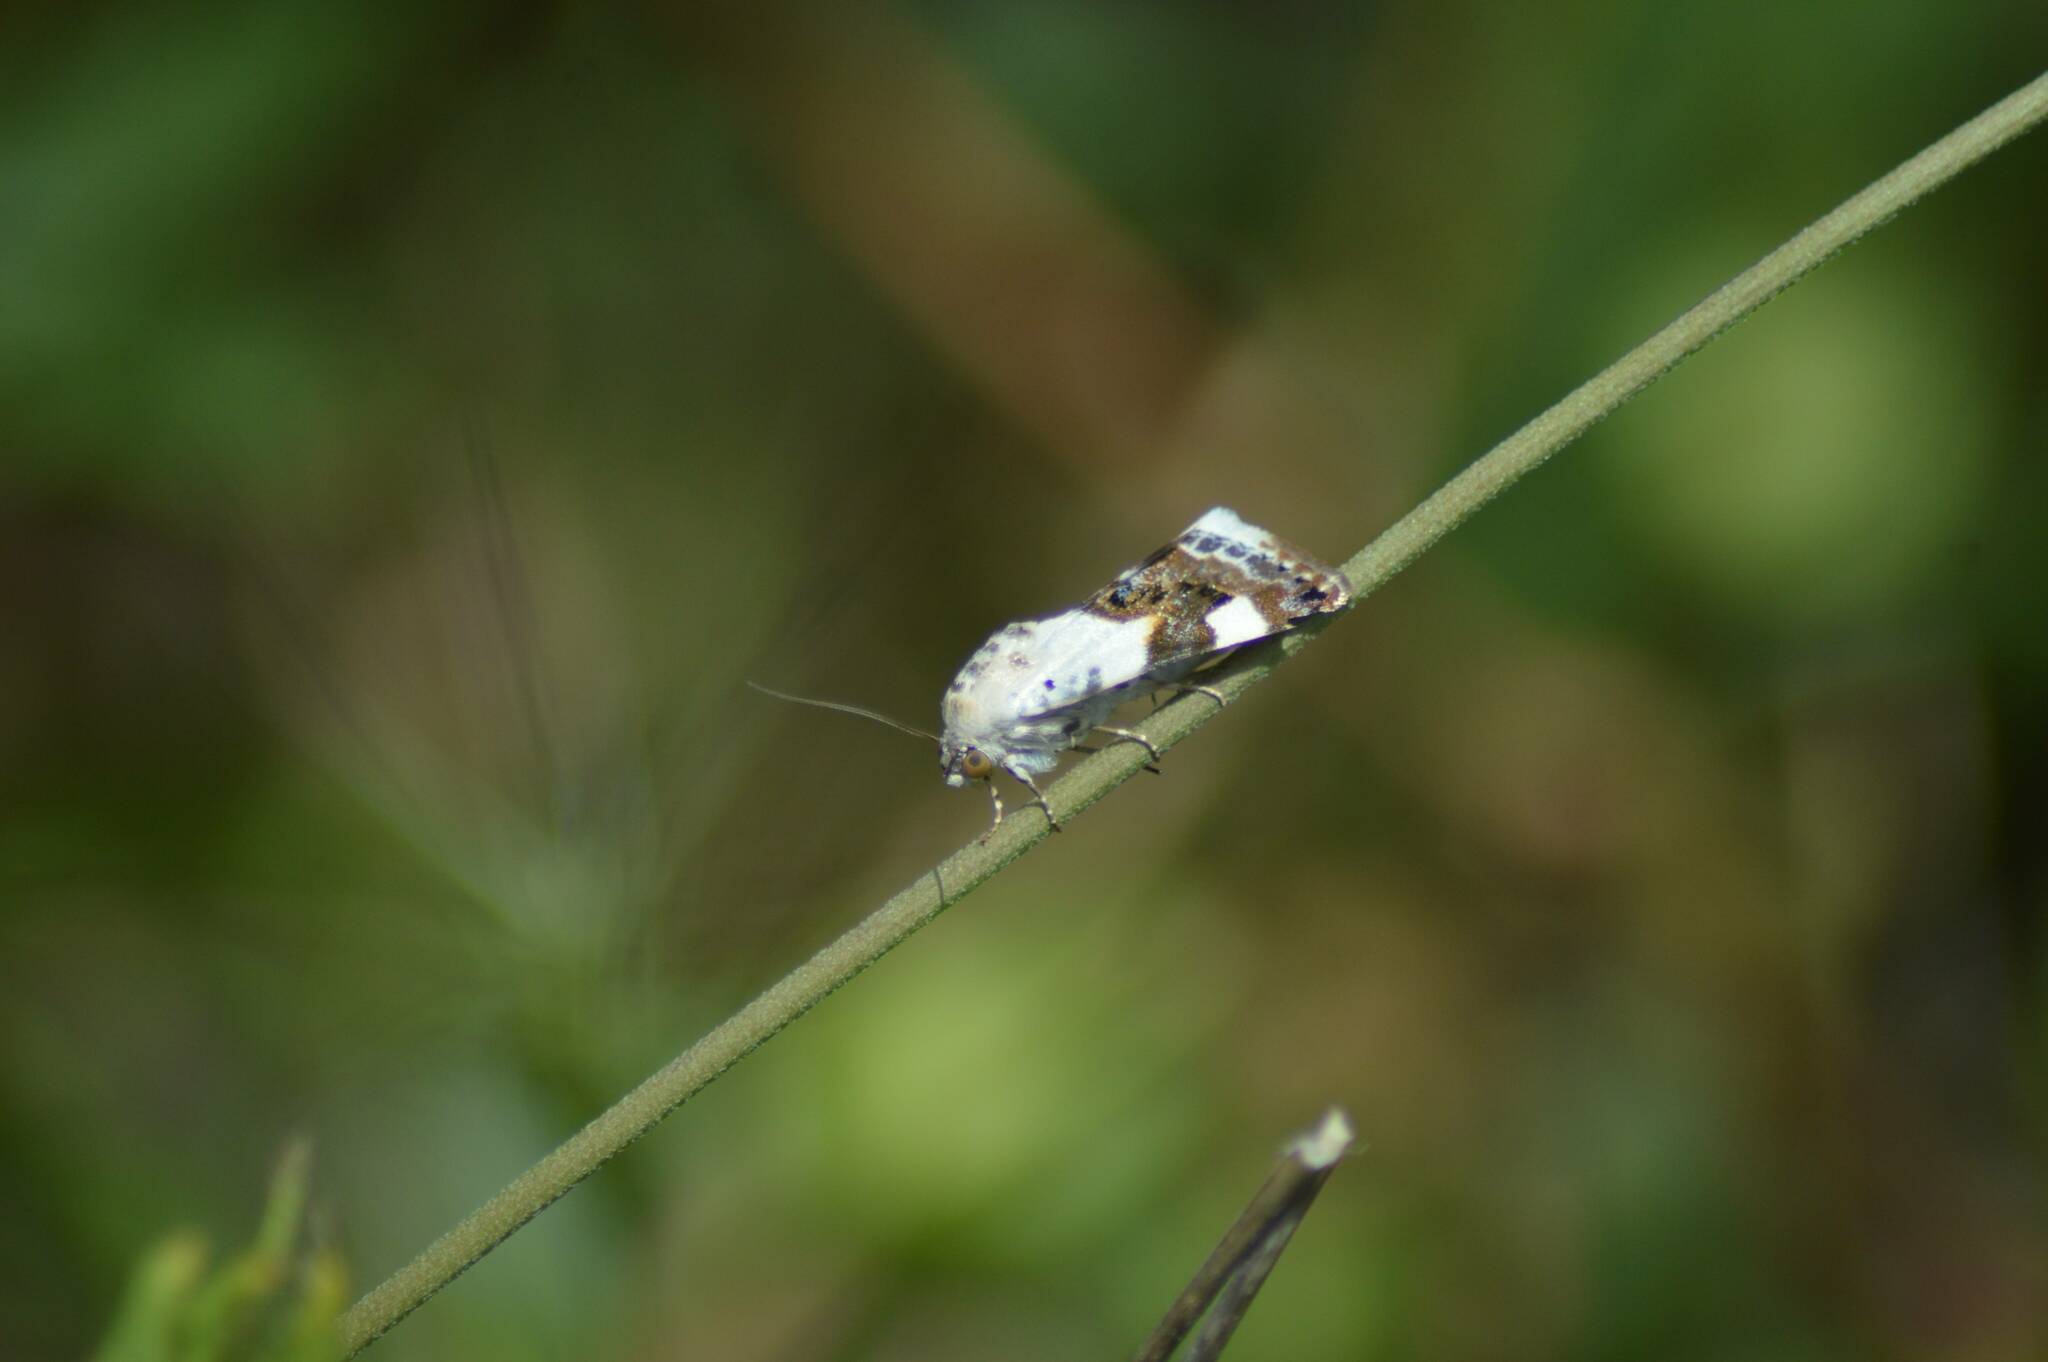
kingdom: Animalia
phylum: Arthropoda
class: Insecta
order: Lepidoptera
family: Noctuidae
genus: Acontia
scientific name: Acontia lucida
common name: Pale shoulder
